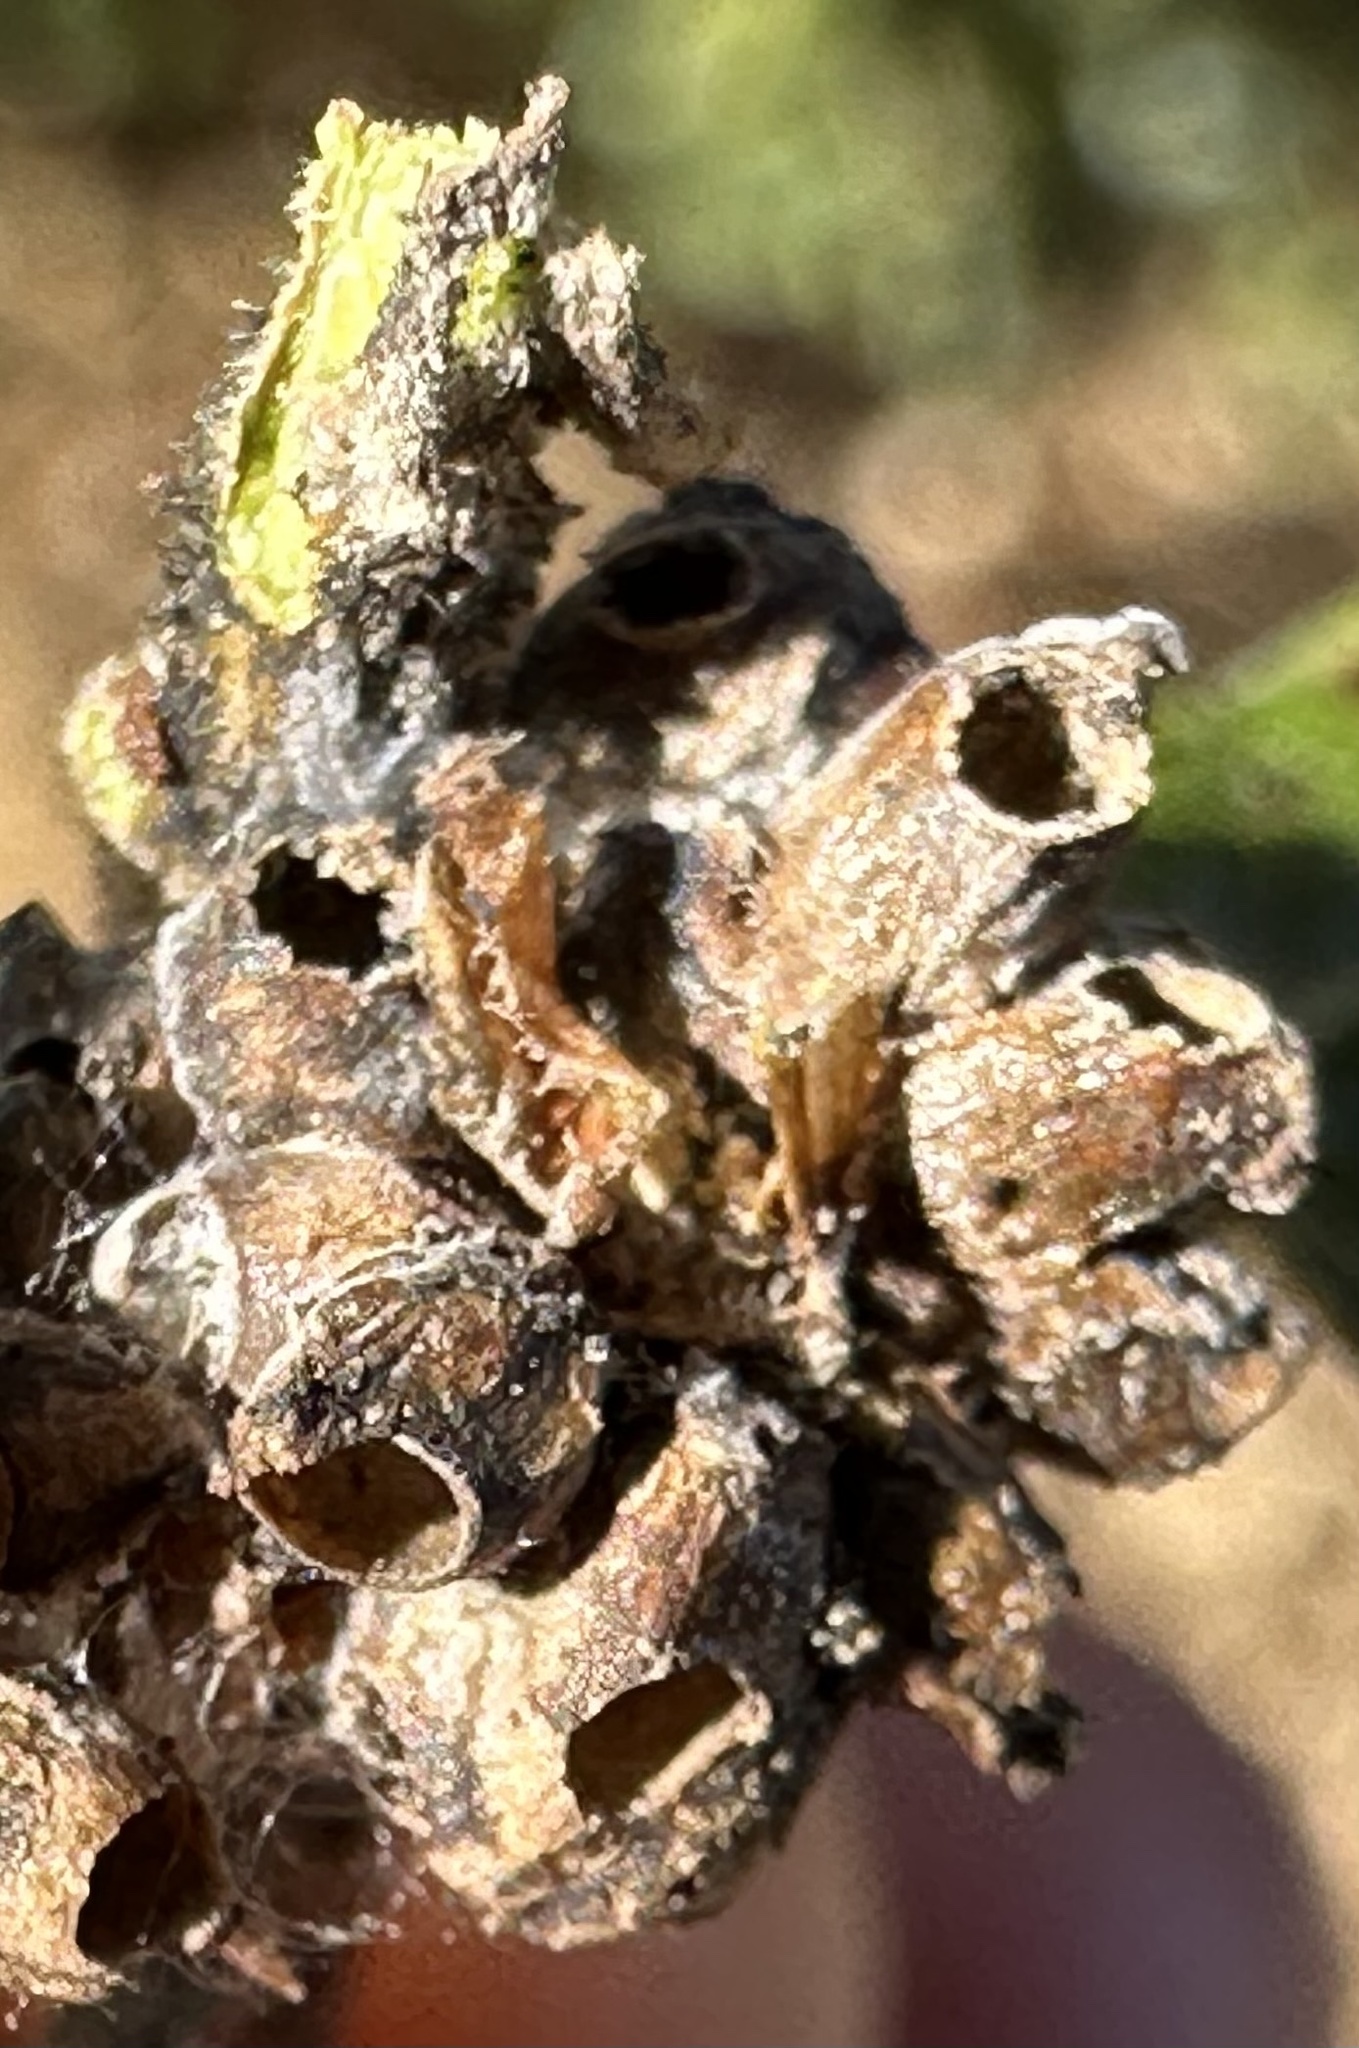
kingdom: Animalia
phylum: Arthropoda
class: Insecta
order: Hymenoptera
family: Cynipidae
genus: Callirhytis
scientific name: Callirhytis
